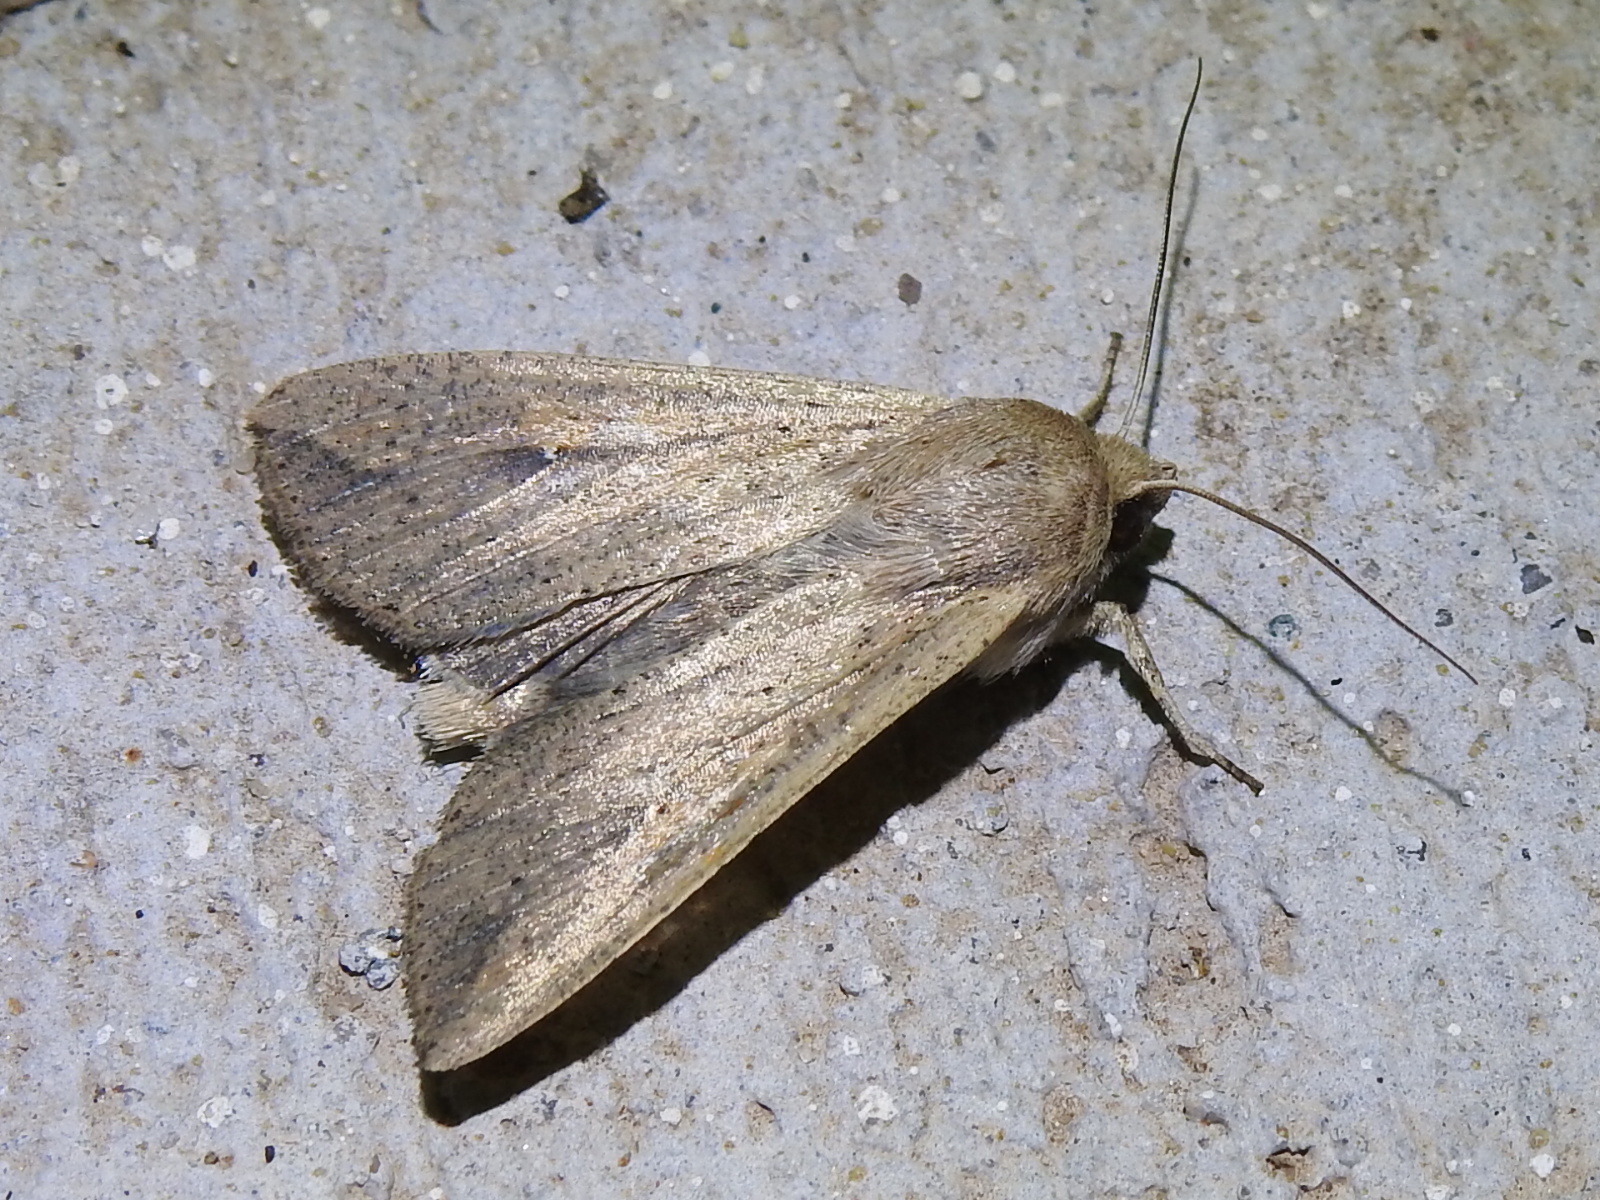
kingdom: Animalia
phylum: Arthropoda
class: Insecta
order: Lepidoptera
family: Noctuidae
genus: Mythimna
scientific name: Mythimna unipuncta
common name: White-speck
